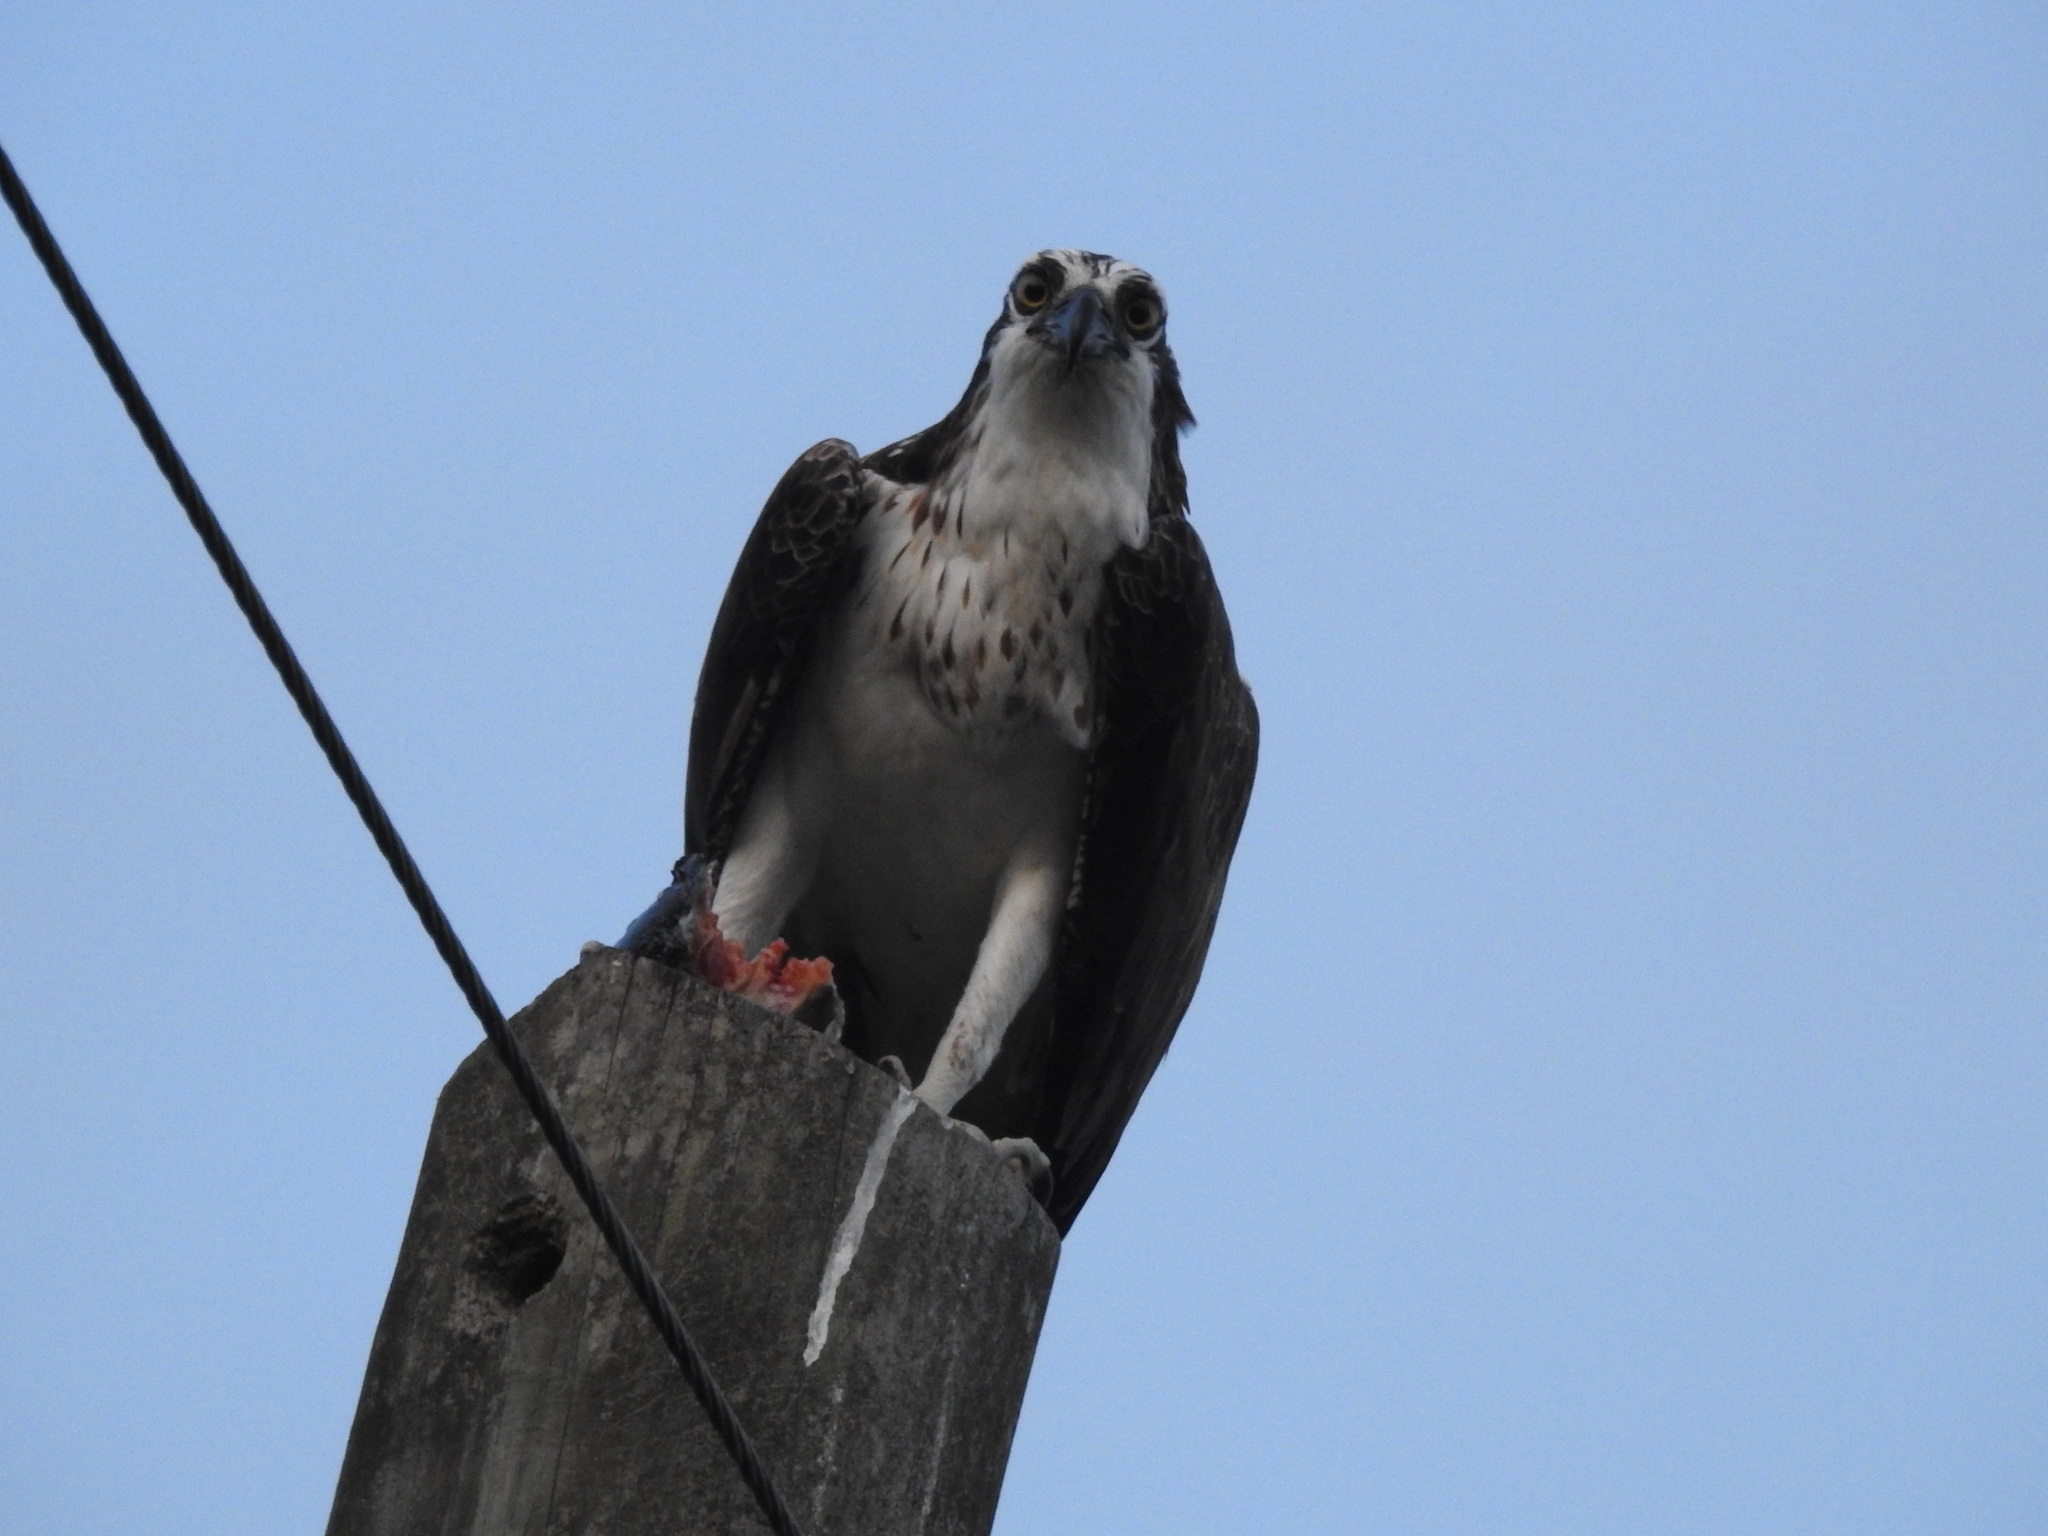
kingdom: Animalia
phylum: Chordata
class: Aves
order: Accipitriformes
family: Pandionidae
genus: Pandion
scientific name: Pandion haliaetus
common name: Osprey
